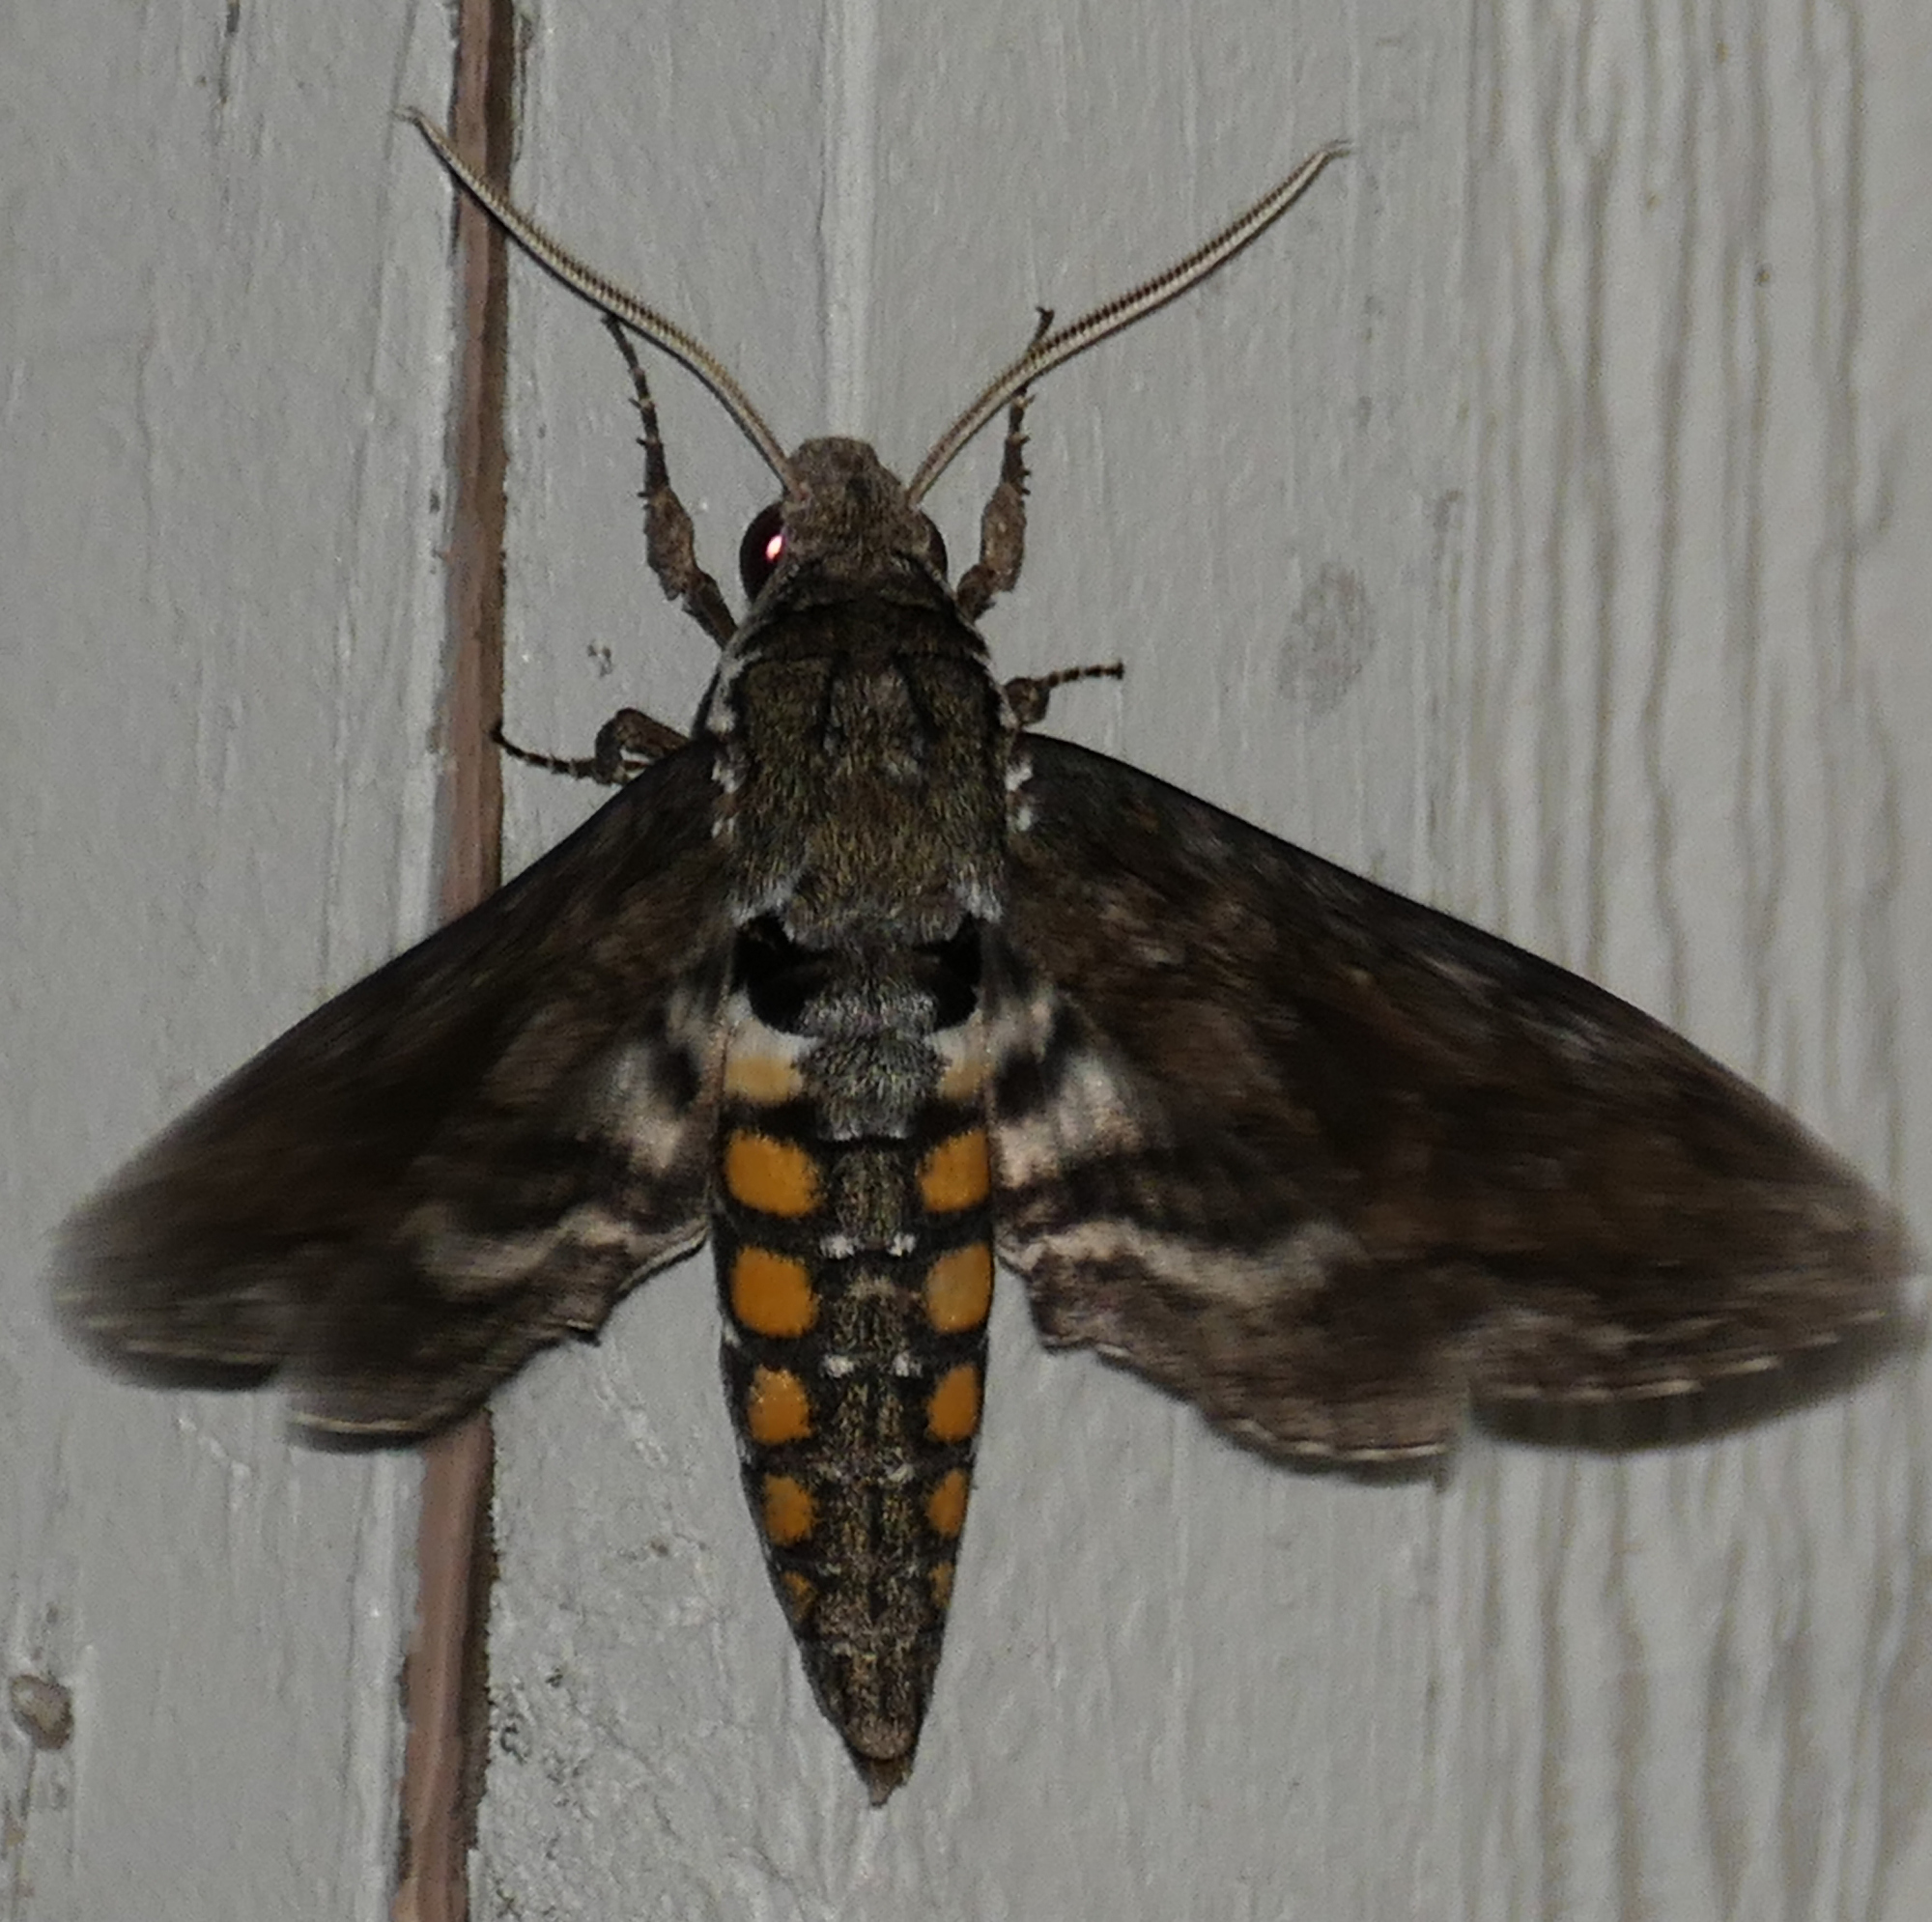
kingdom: Animalia
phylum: Arthropoda
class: Insecta
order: Lepidoptera
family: Sphingidae
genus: Manduca
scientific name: Manduca sexta
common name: Carolina sphinx
